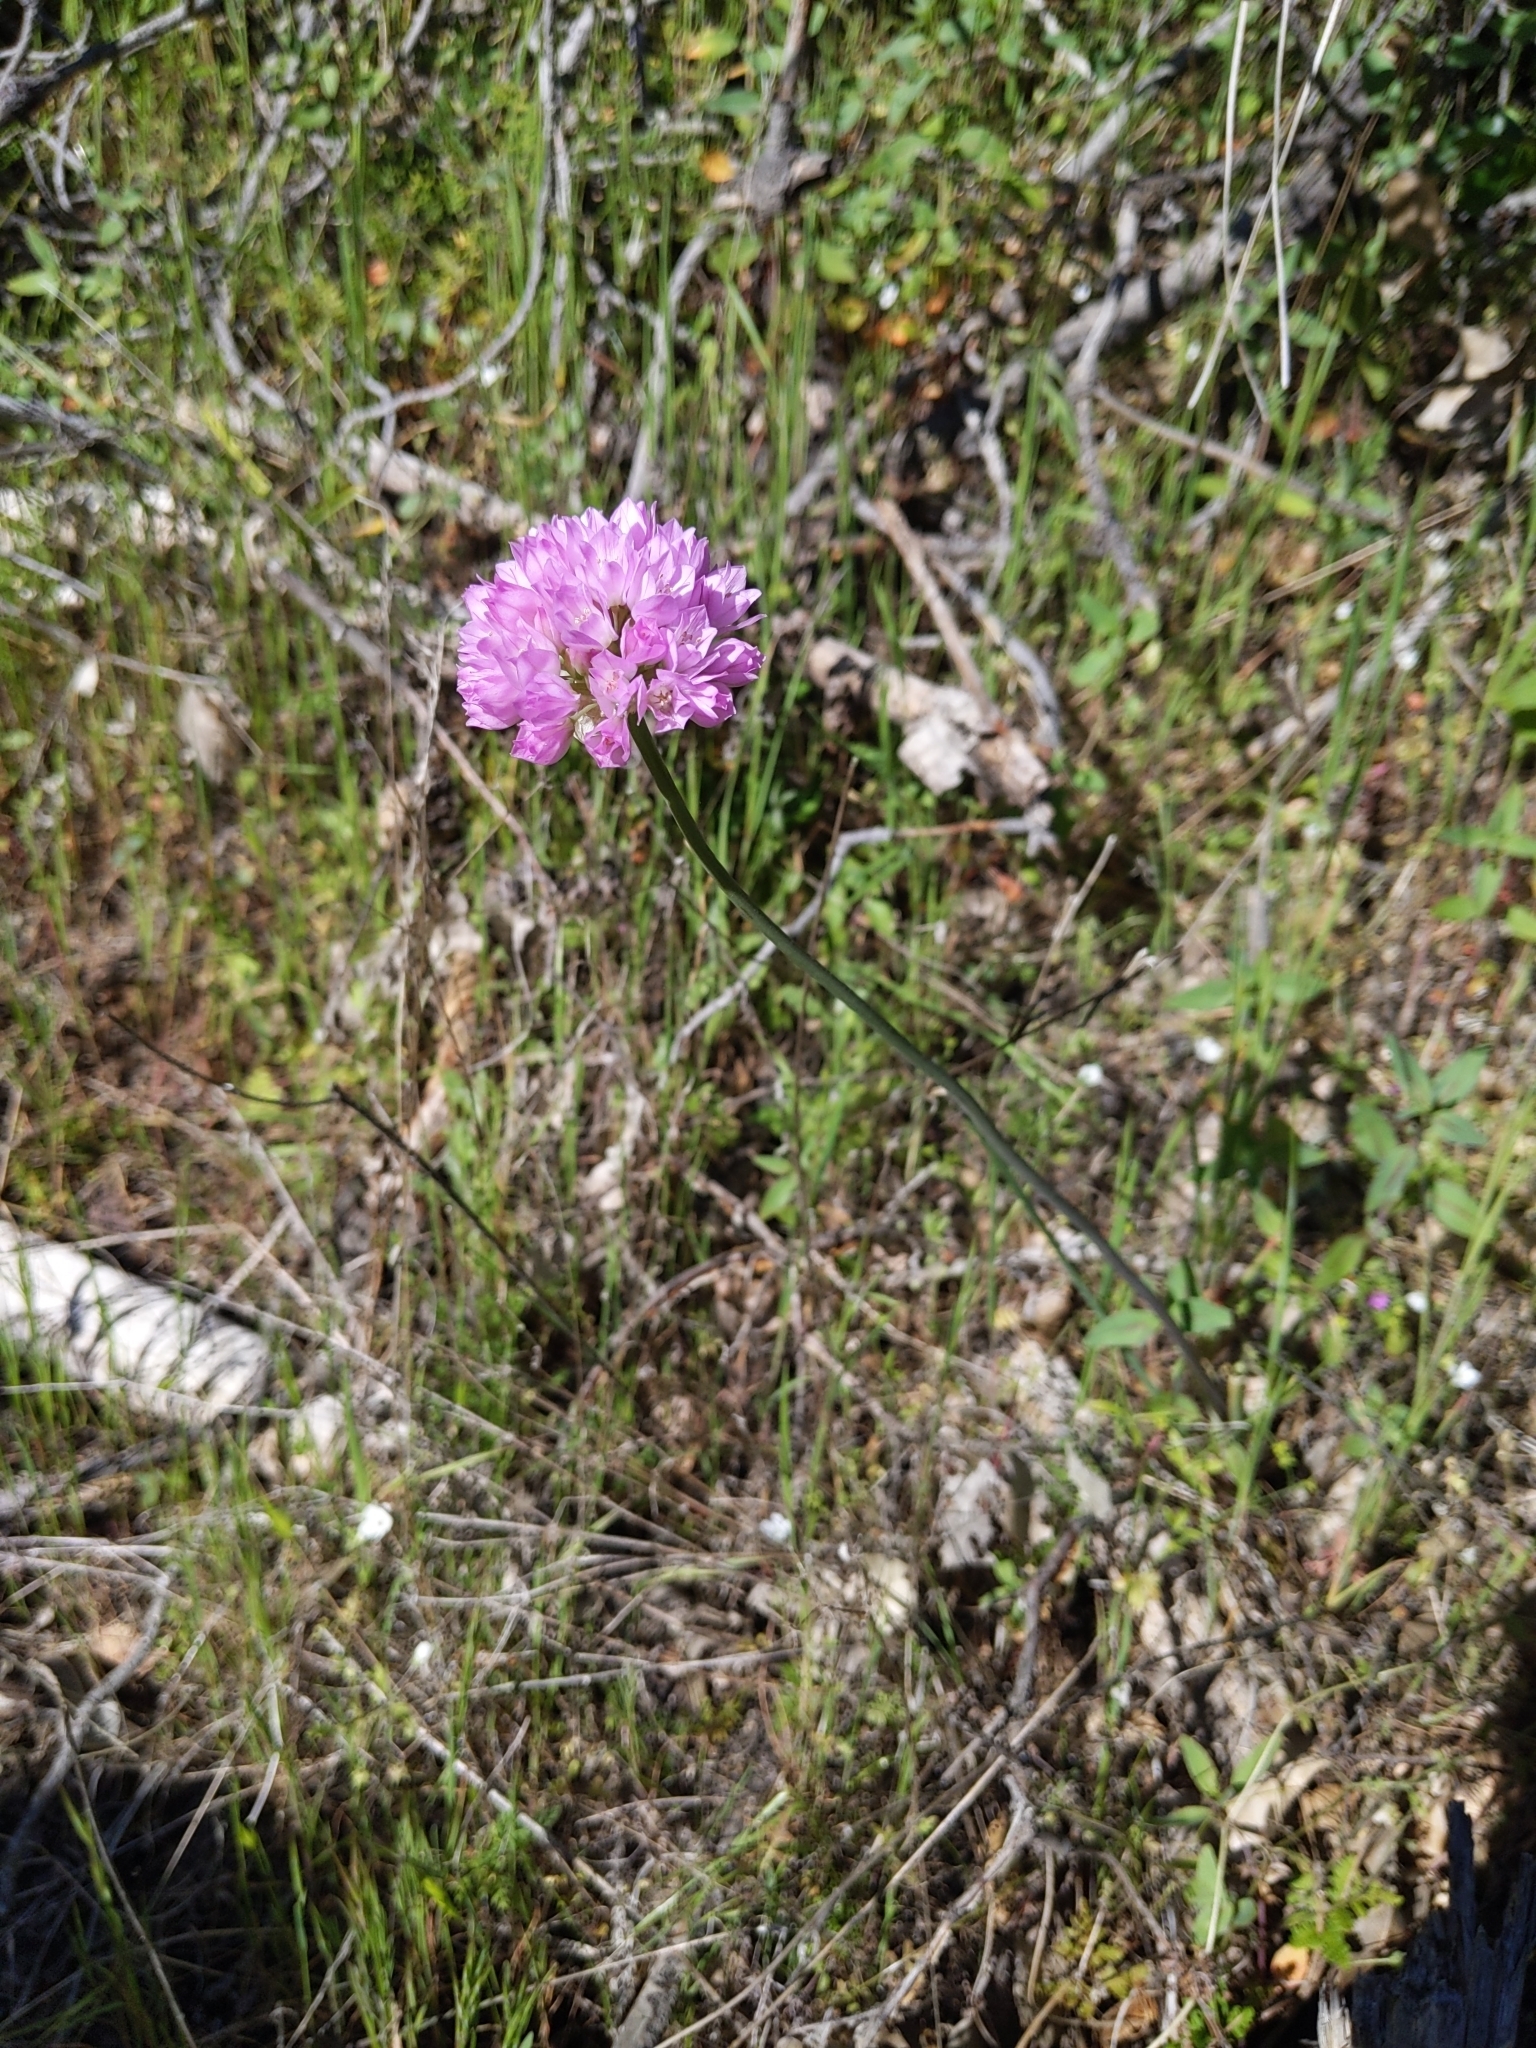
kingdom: Plantae
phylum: Tracheophyta
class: Liliopsida
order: Asparagales
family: Amaryllidaceae
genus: Allium
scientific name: Allium serra
